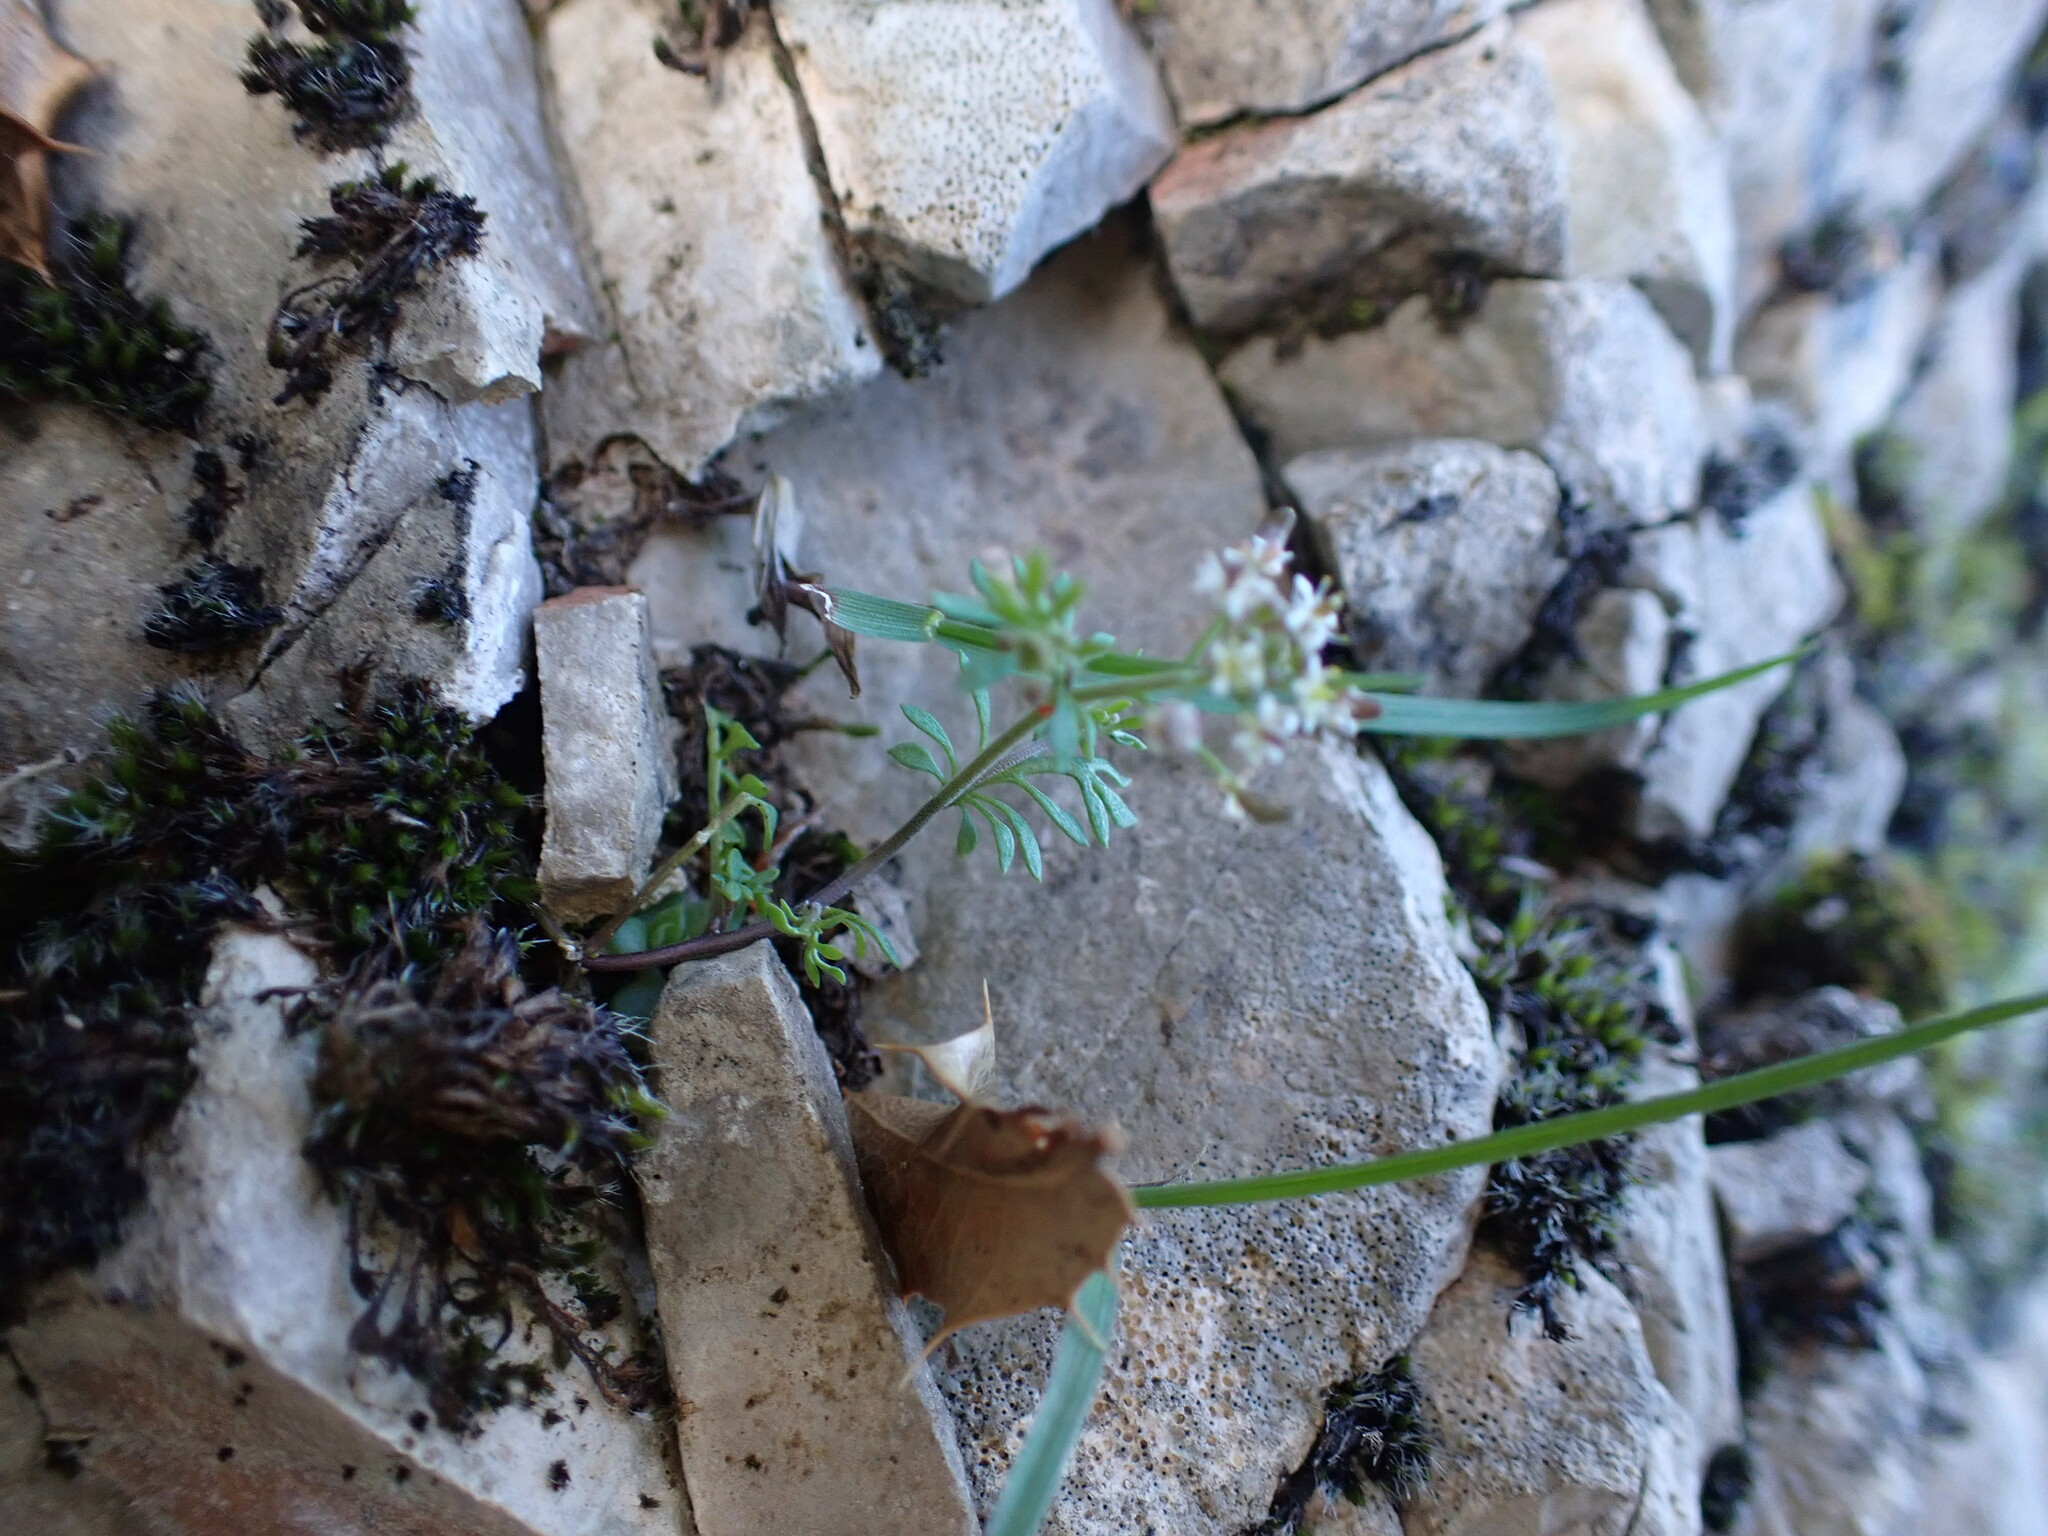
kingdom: Plantae
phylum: Tracheophyta
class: Magnoliopsida
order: Brassicales
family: Brassicaceae
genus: Hornungia
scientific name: Hornungia petraea
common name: Hutchinsia
